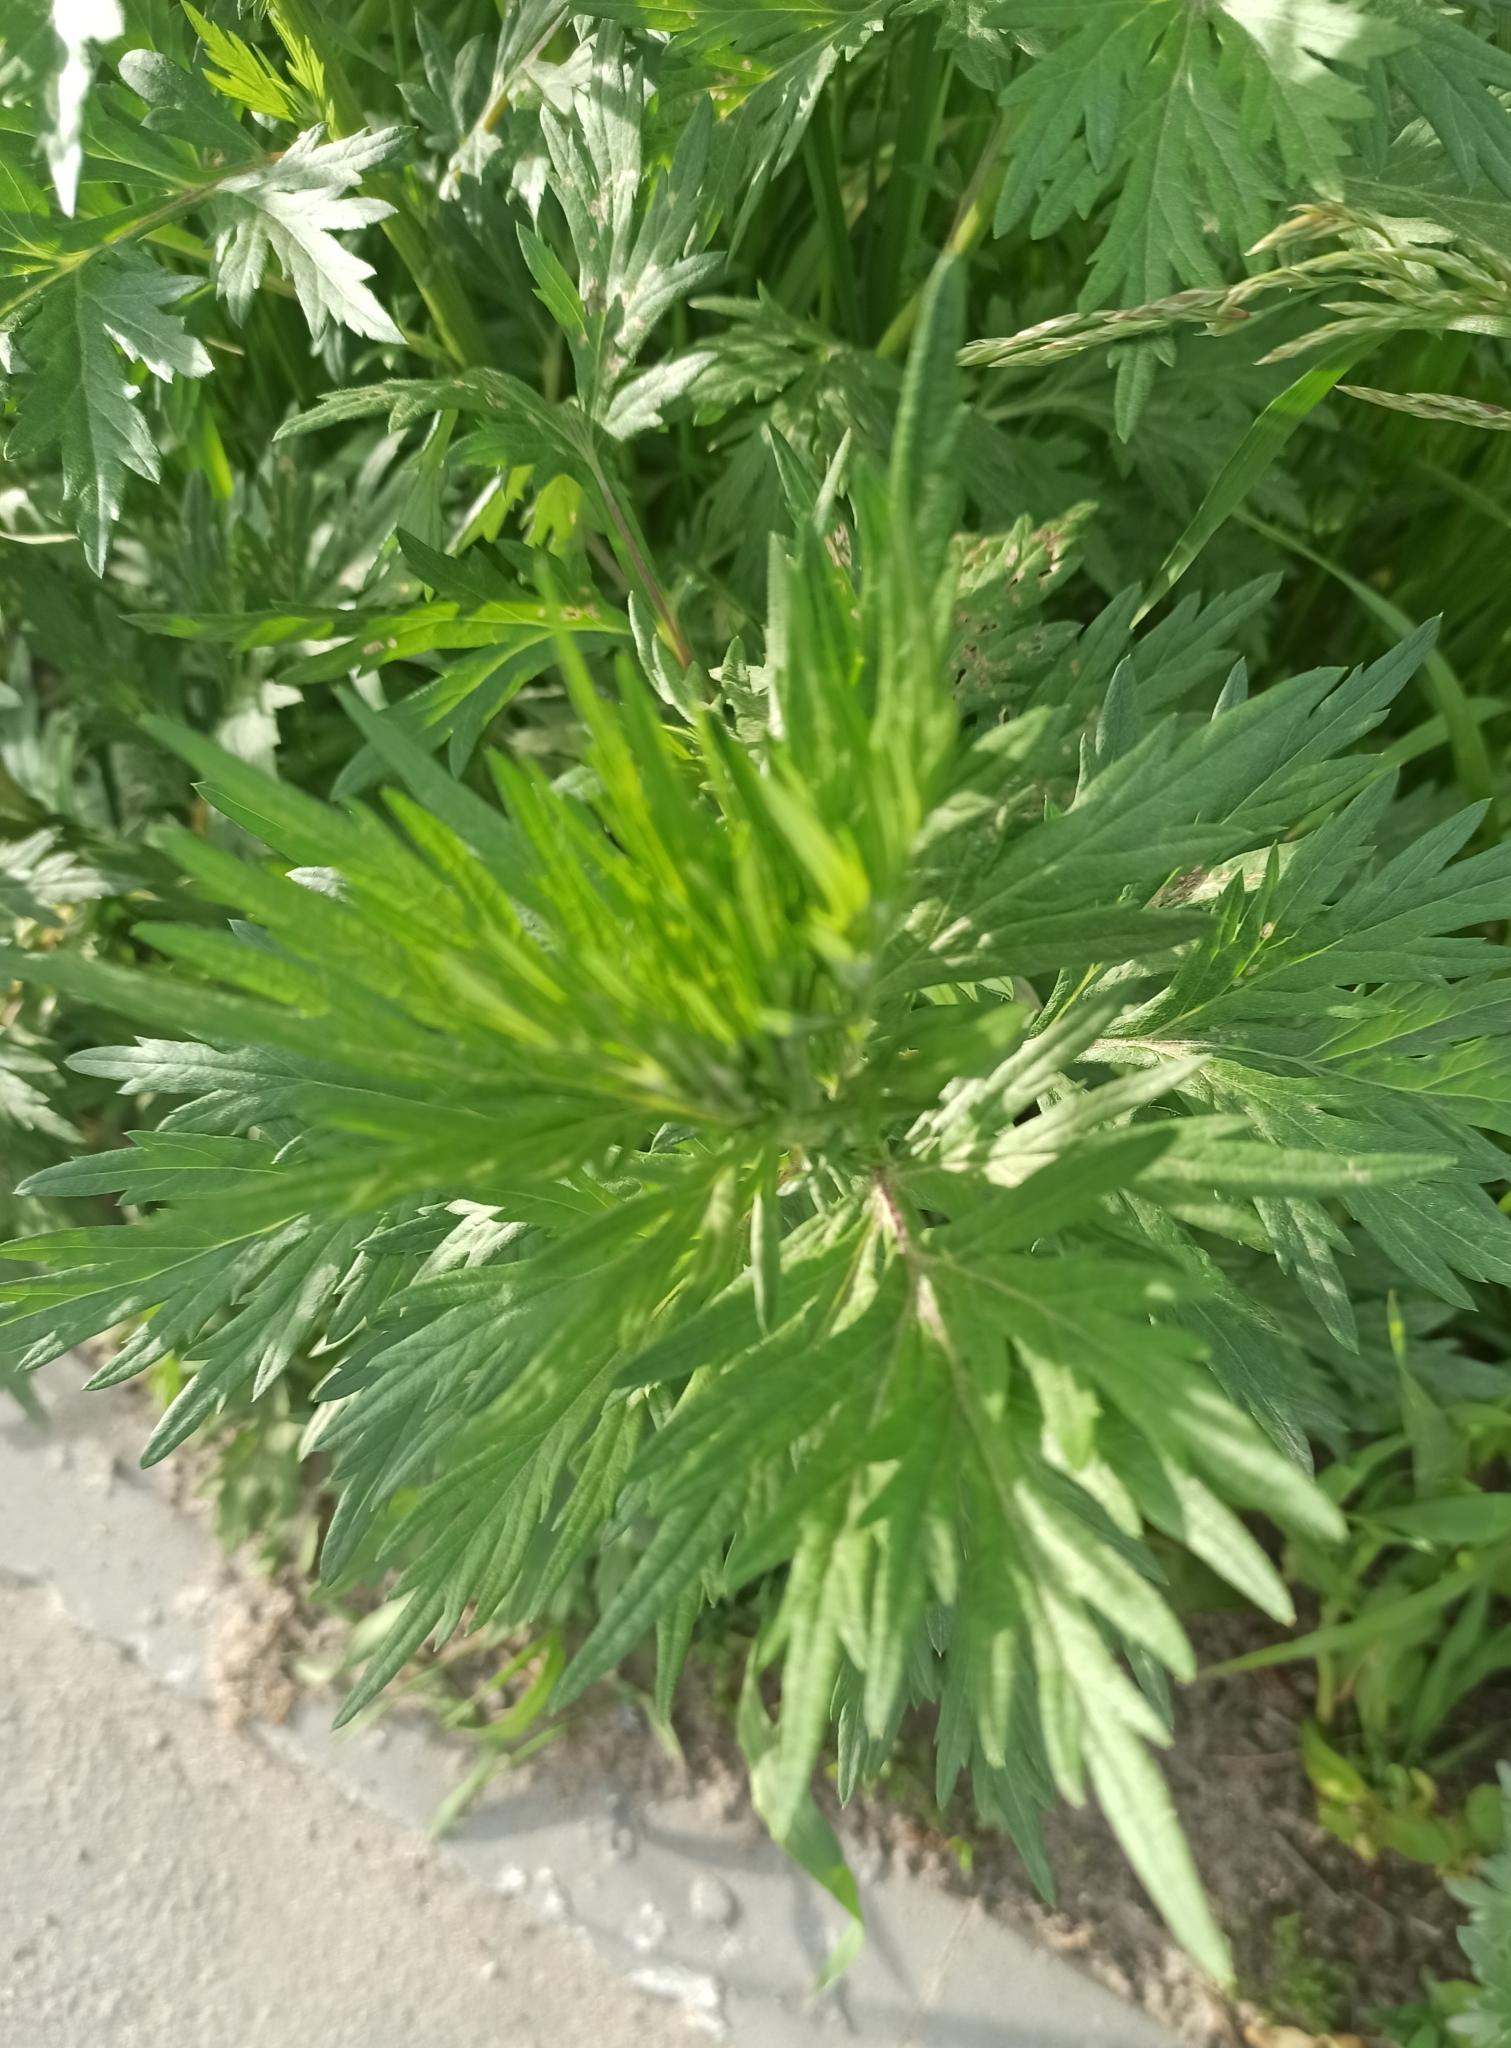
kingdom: Plantae
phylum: Tracheophyta
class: Magnoliopsida
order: Asterales
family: Asteraceae
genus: Artemisia
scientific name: Artemisia vulgaris
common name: Mugwort
